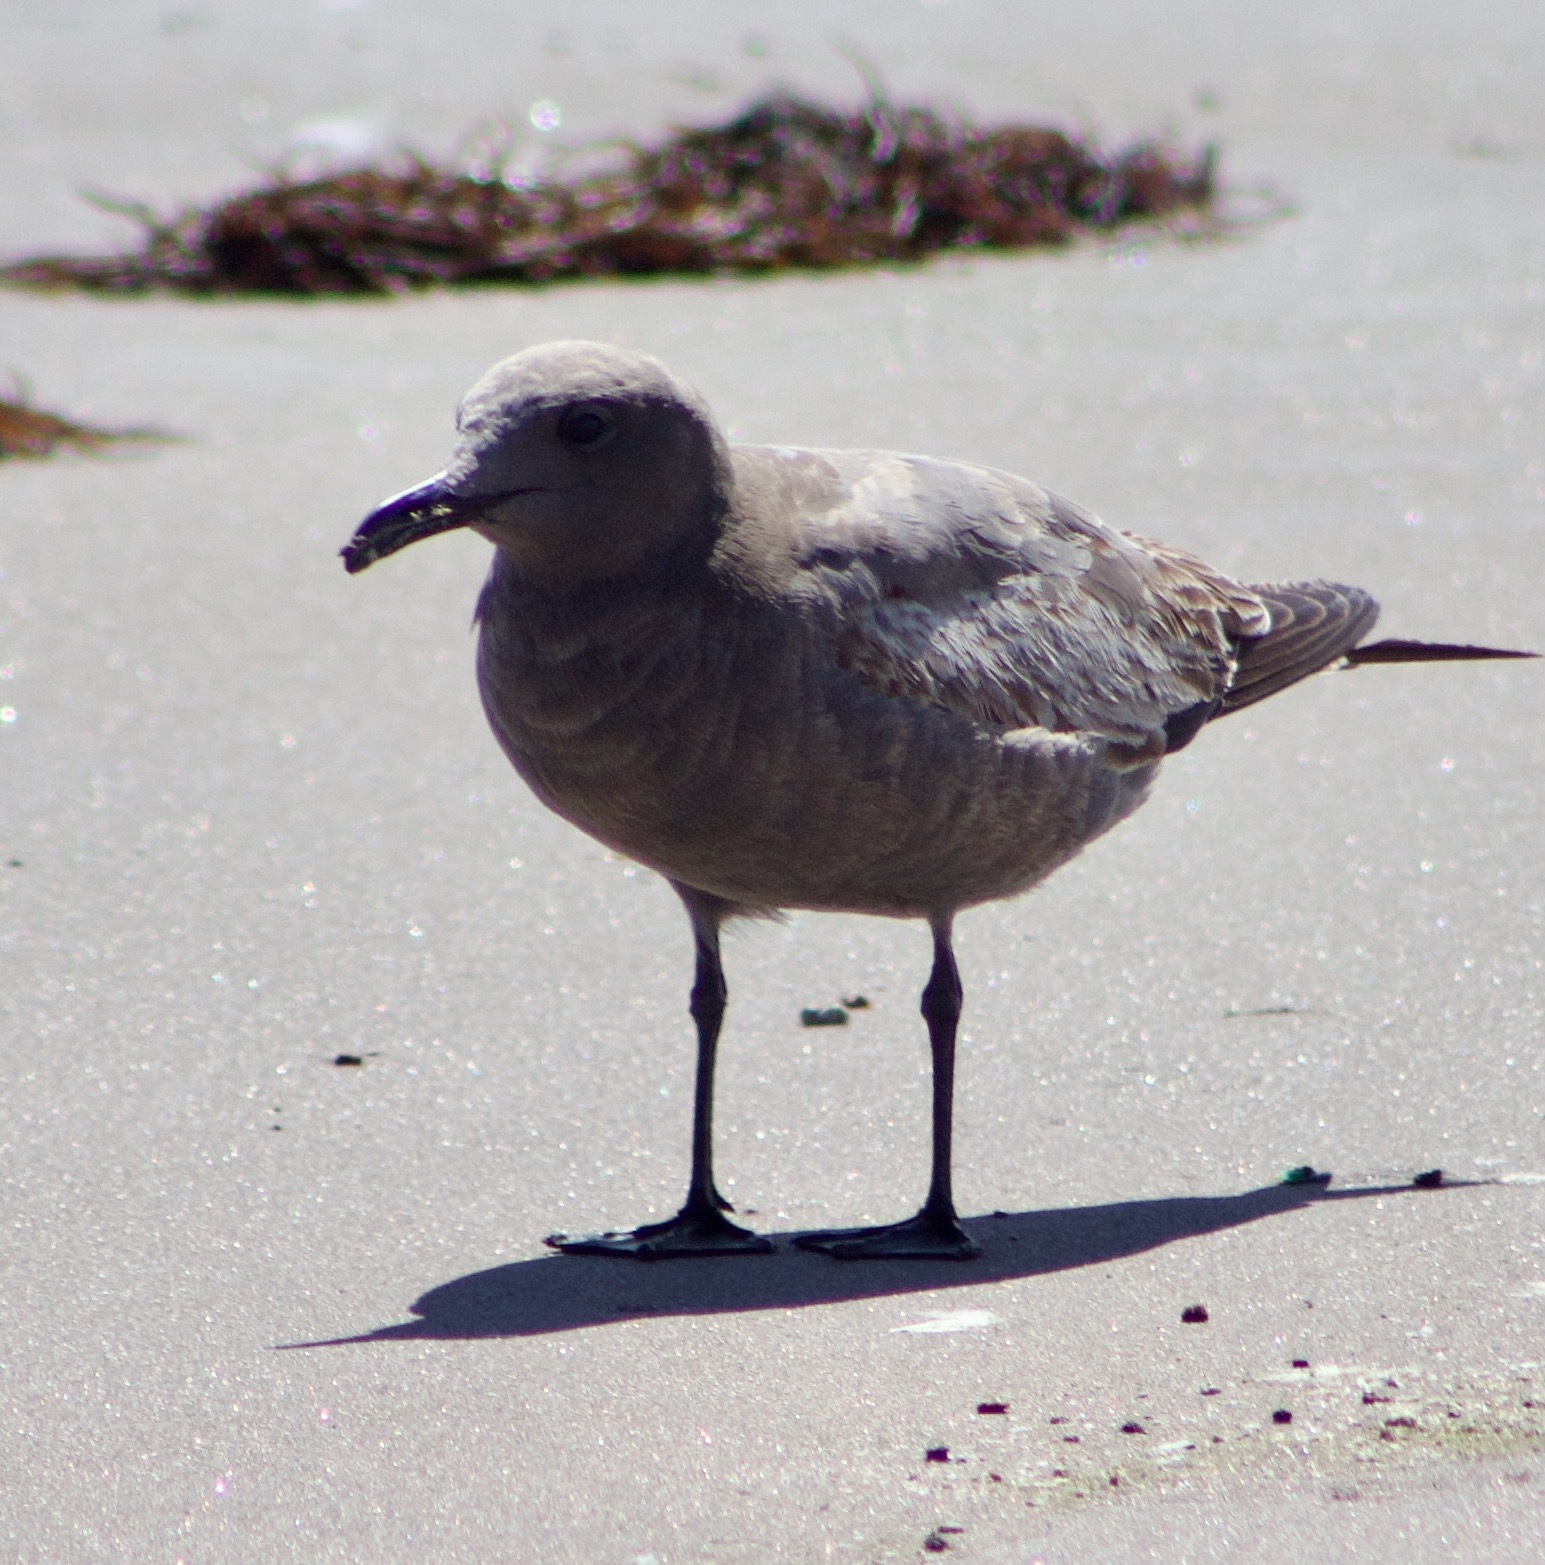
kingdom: Animalia
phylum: Chordata
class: Aves
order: Charadriiformes
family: Laridae
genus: Leucophaeus
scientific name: Leucophaeus modestus
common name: Gray gull
